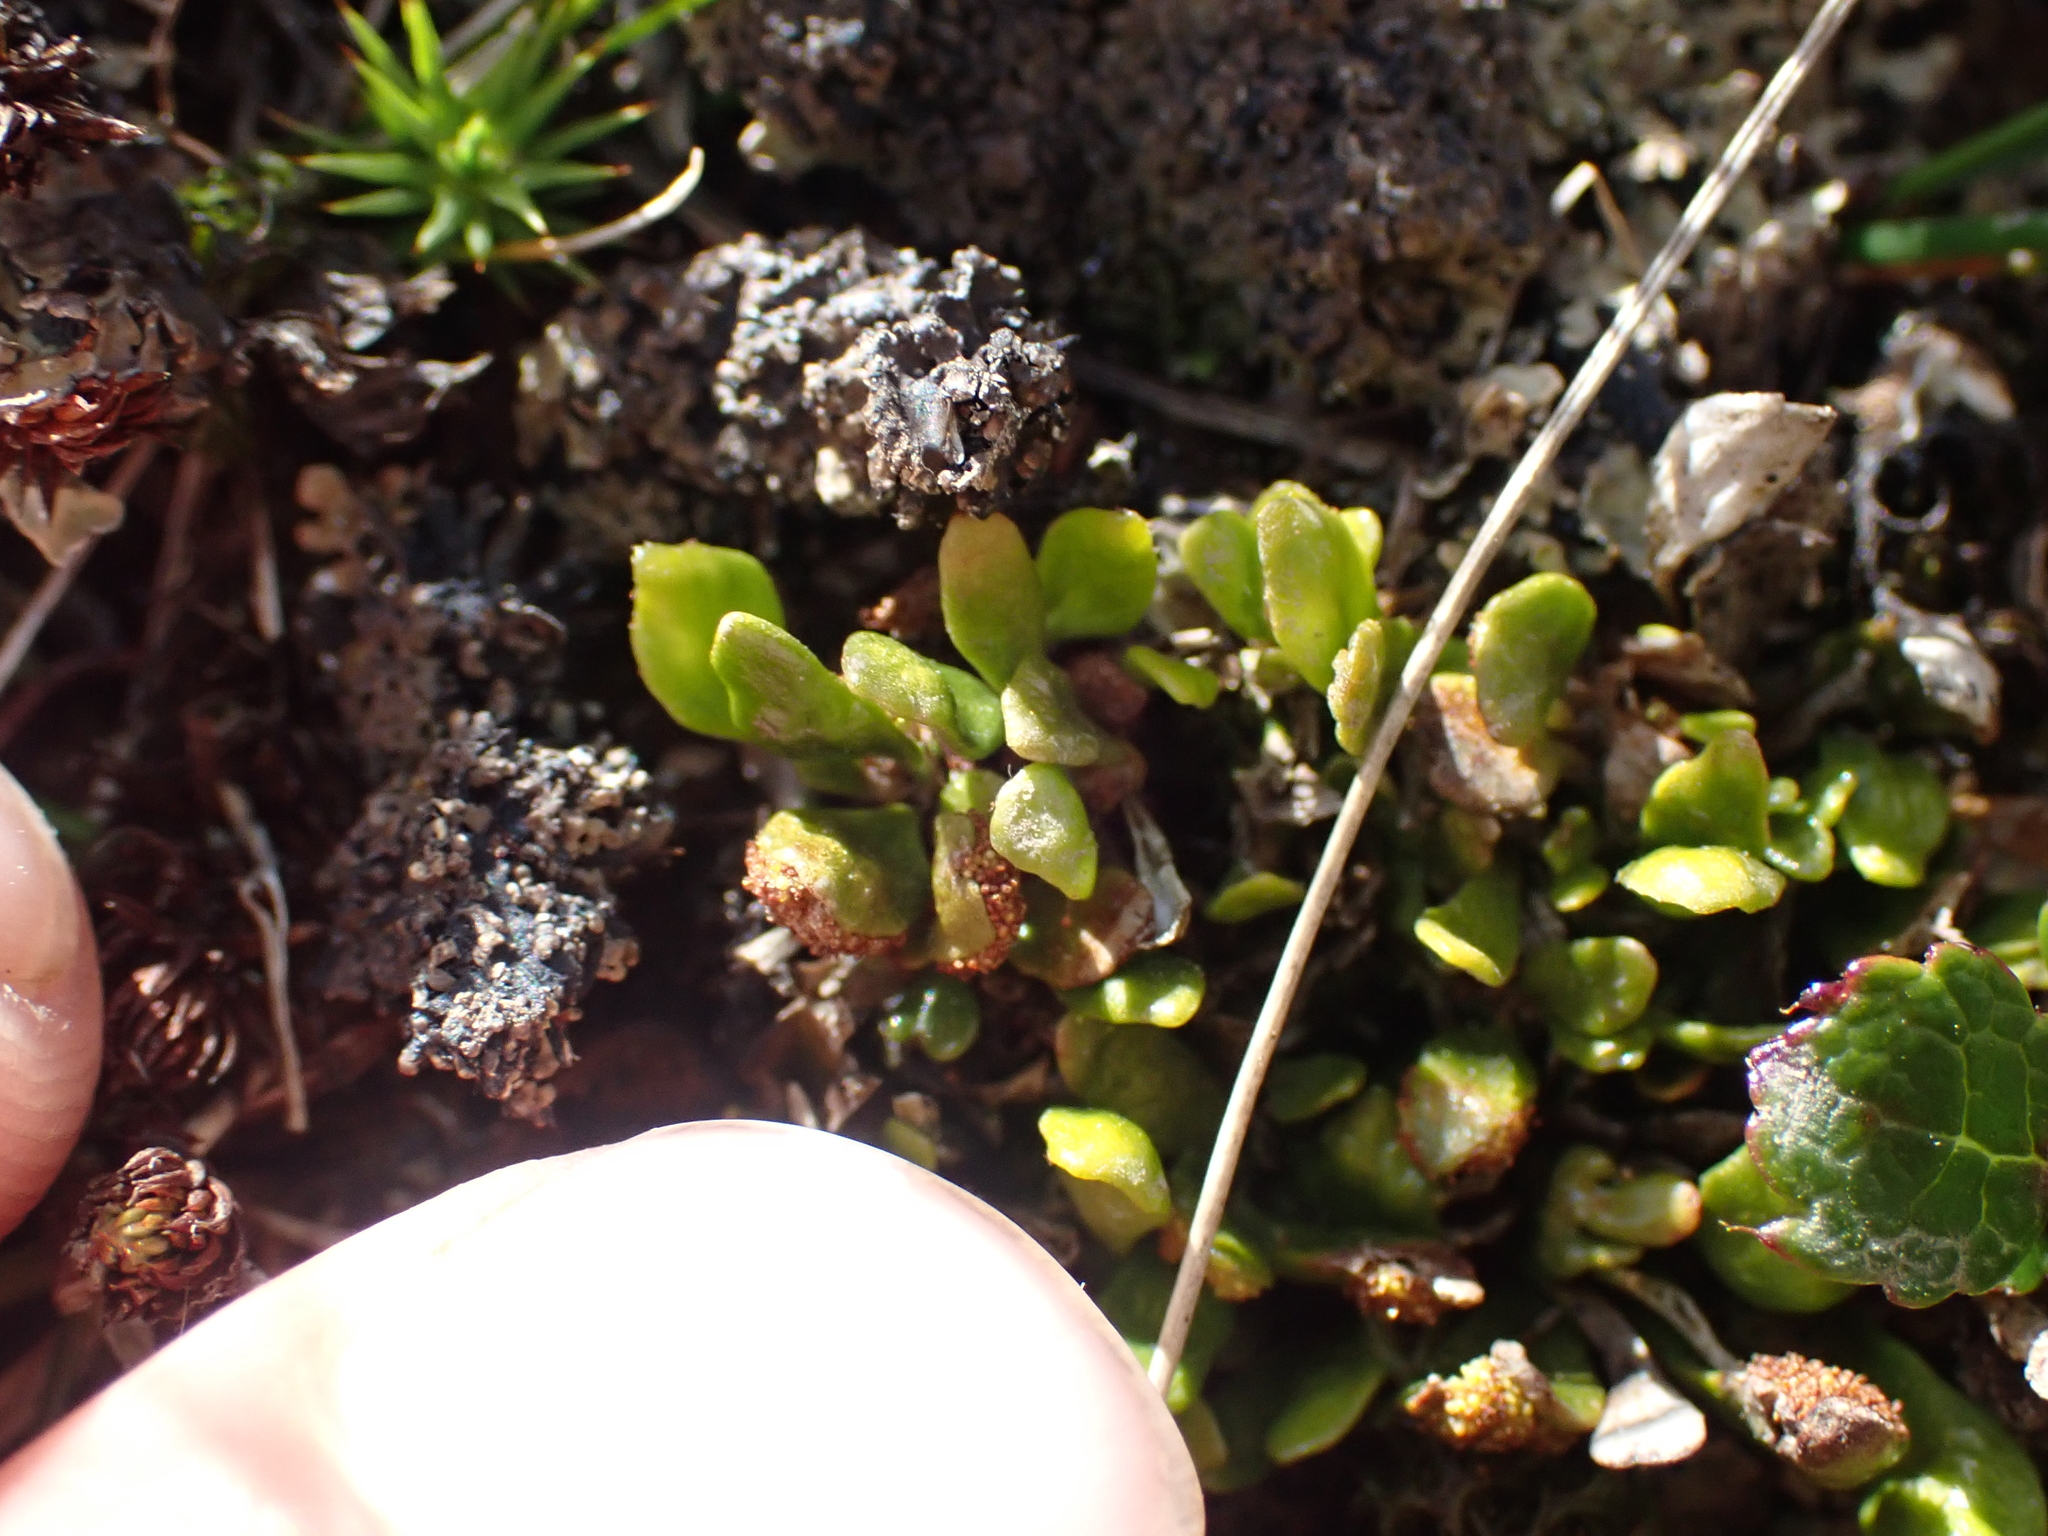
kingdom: Plantae
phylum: Tracheophyta
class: Polypodiopsida
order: Polypodiales
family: Polypodiaceae
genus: Notogrammitis
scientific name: Notogrammitis crassior
